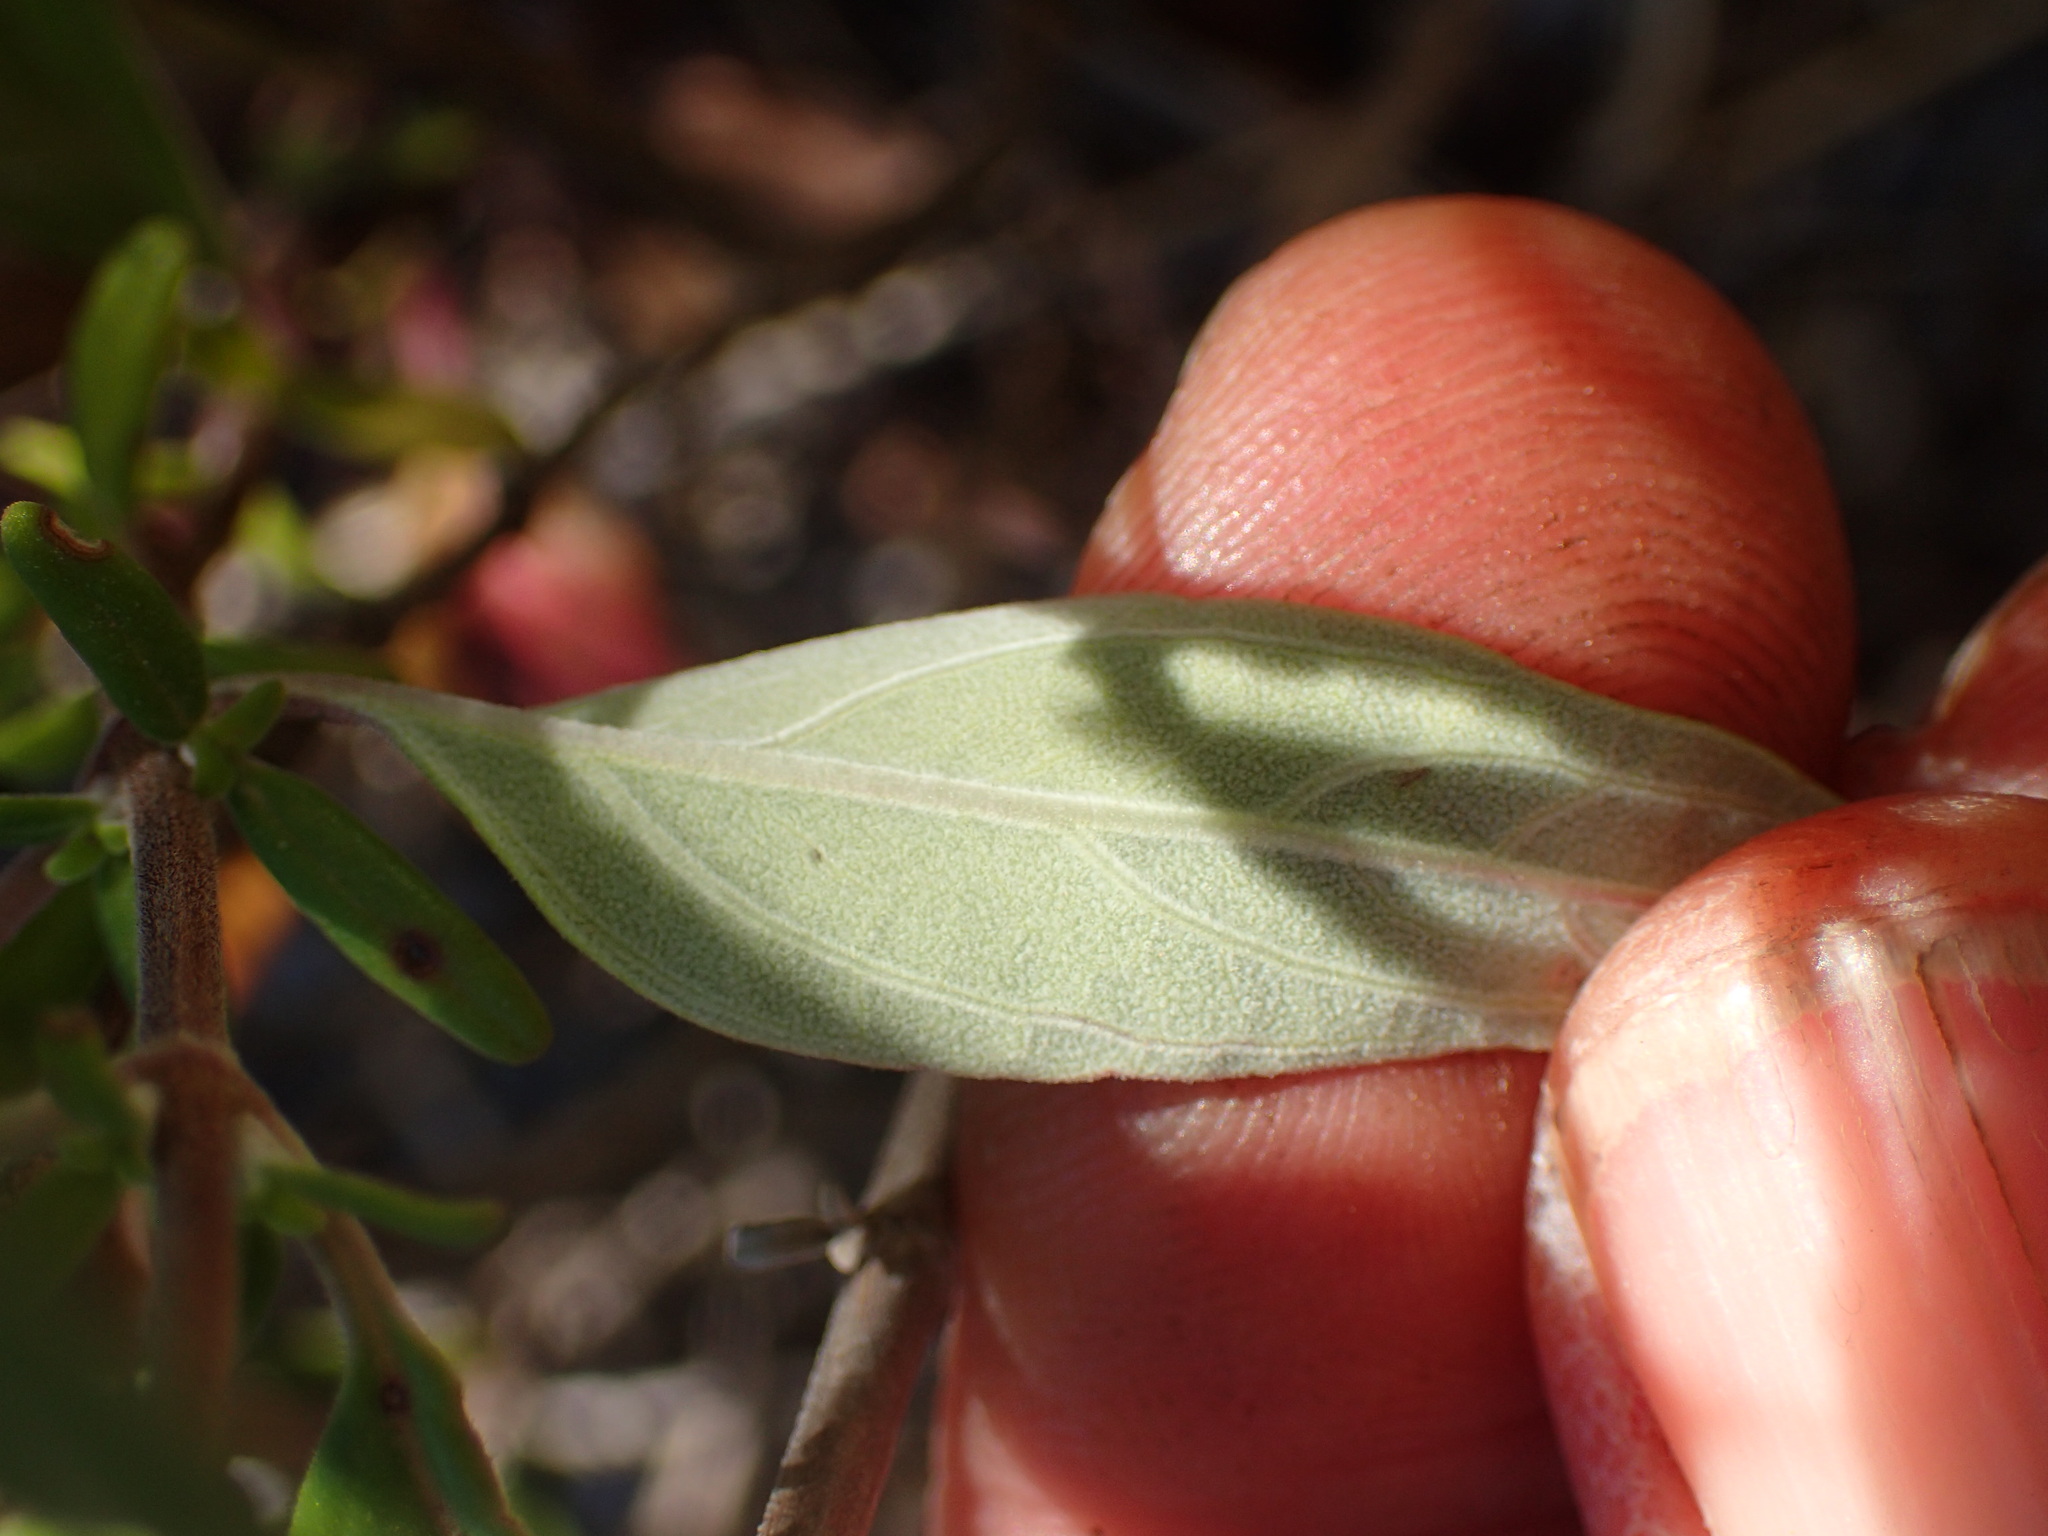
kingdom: Plantae
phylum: Tracheophyta
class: Magnoliopsida
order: Lamiales
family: Lamiaceae
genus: Monardella
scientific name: Monardella hypoleuca
